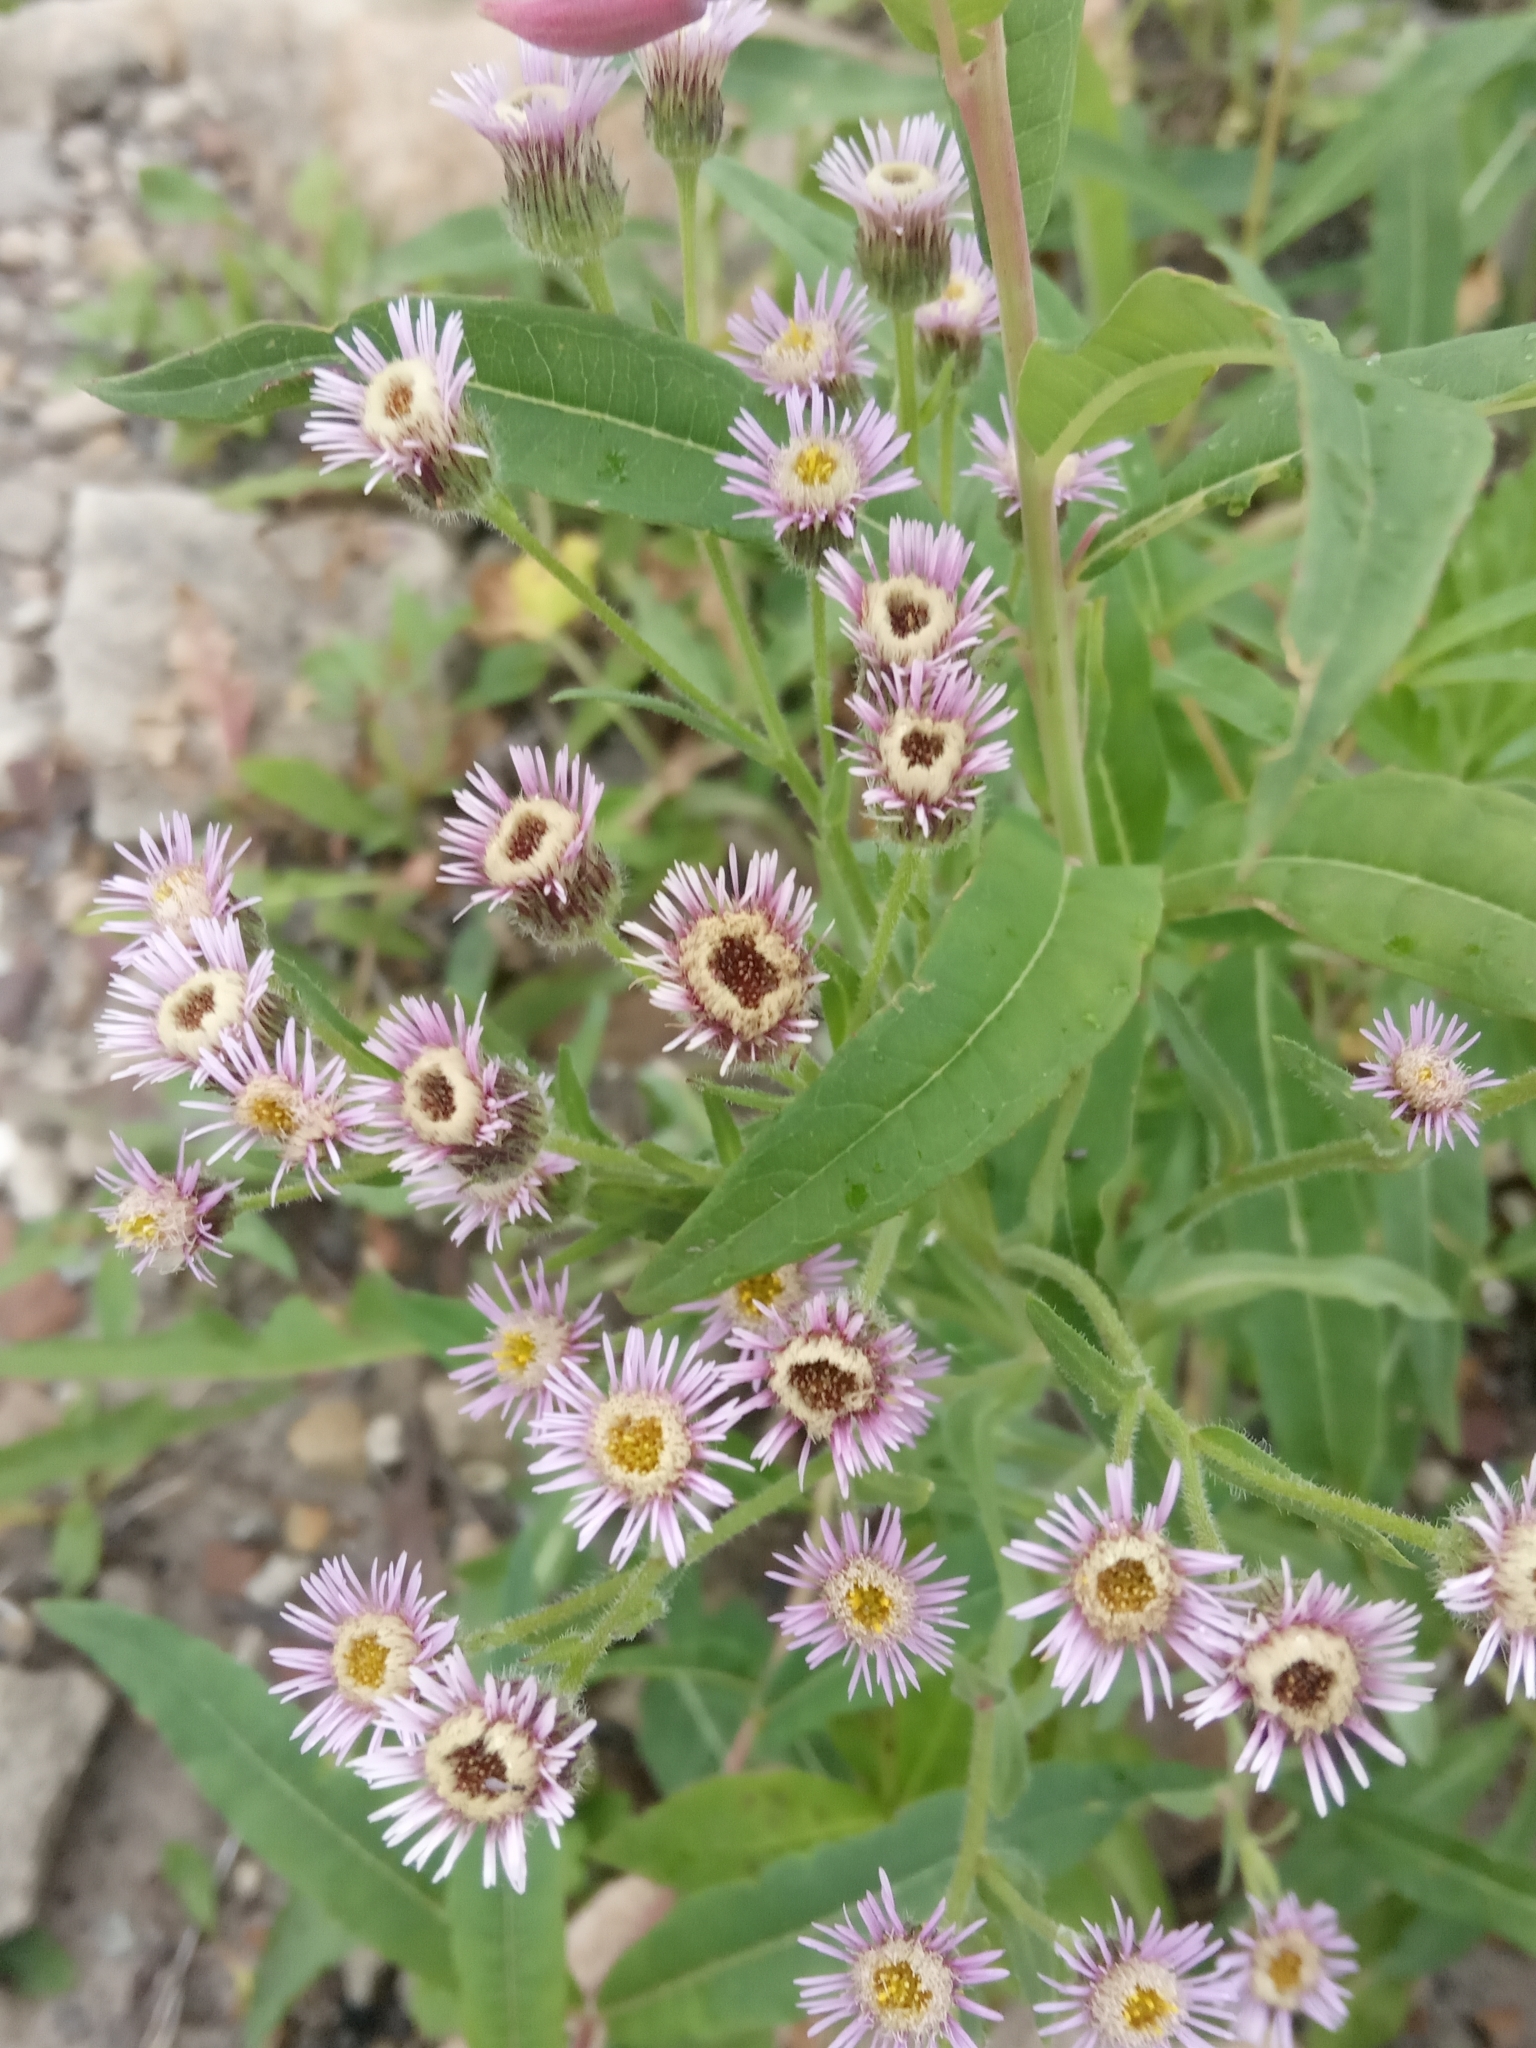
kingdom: Plantae
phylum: Tracheophyta
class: Magnoliopsida
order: Asterales
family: Asteraceae
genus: Erigeron
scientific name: Erigeron acris
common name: Blue fleabane
